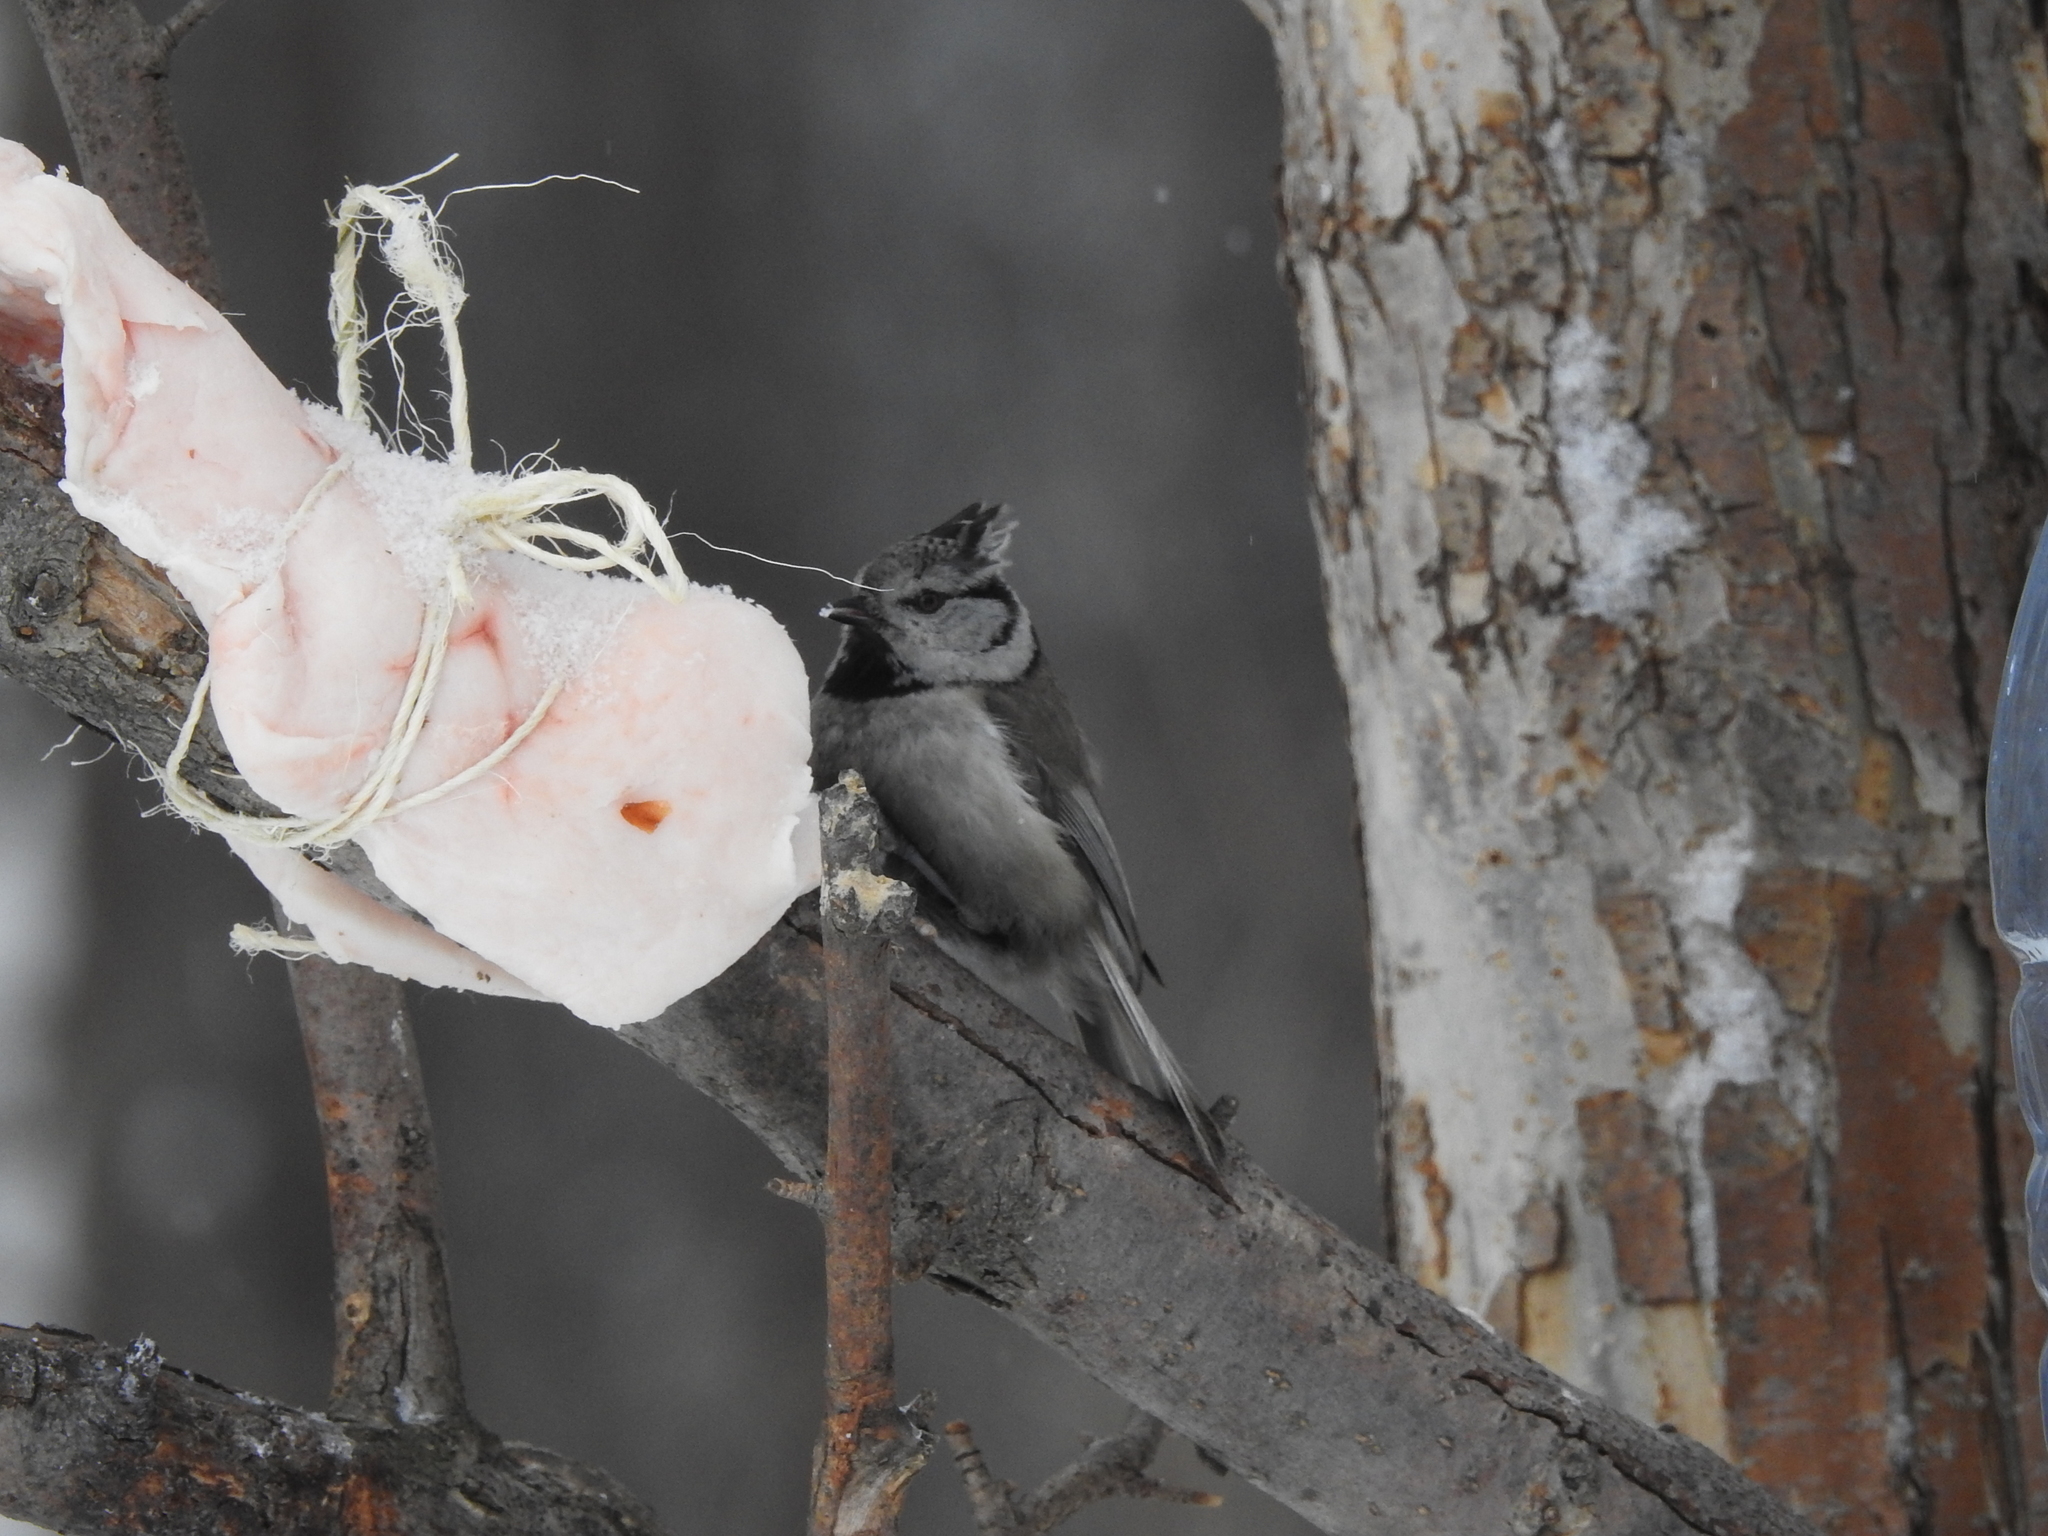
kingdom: Animalia
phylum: Chordata
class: Aves
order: Passeriformes
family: Paridae
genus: Lophophanes
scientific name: Lophophanes cristatus
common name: European crested tit
